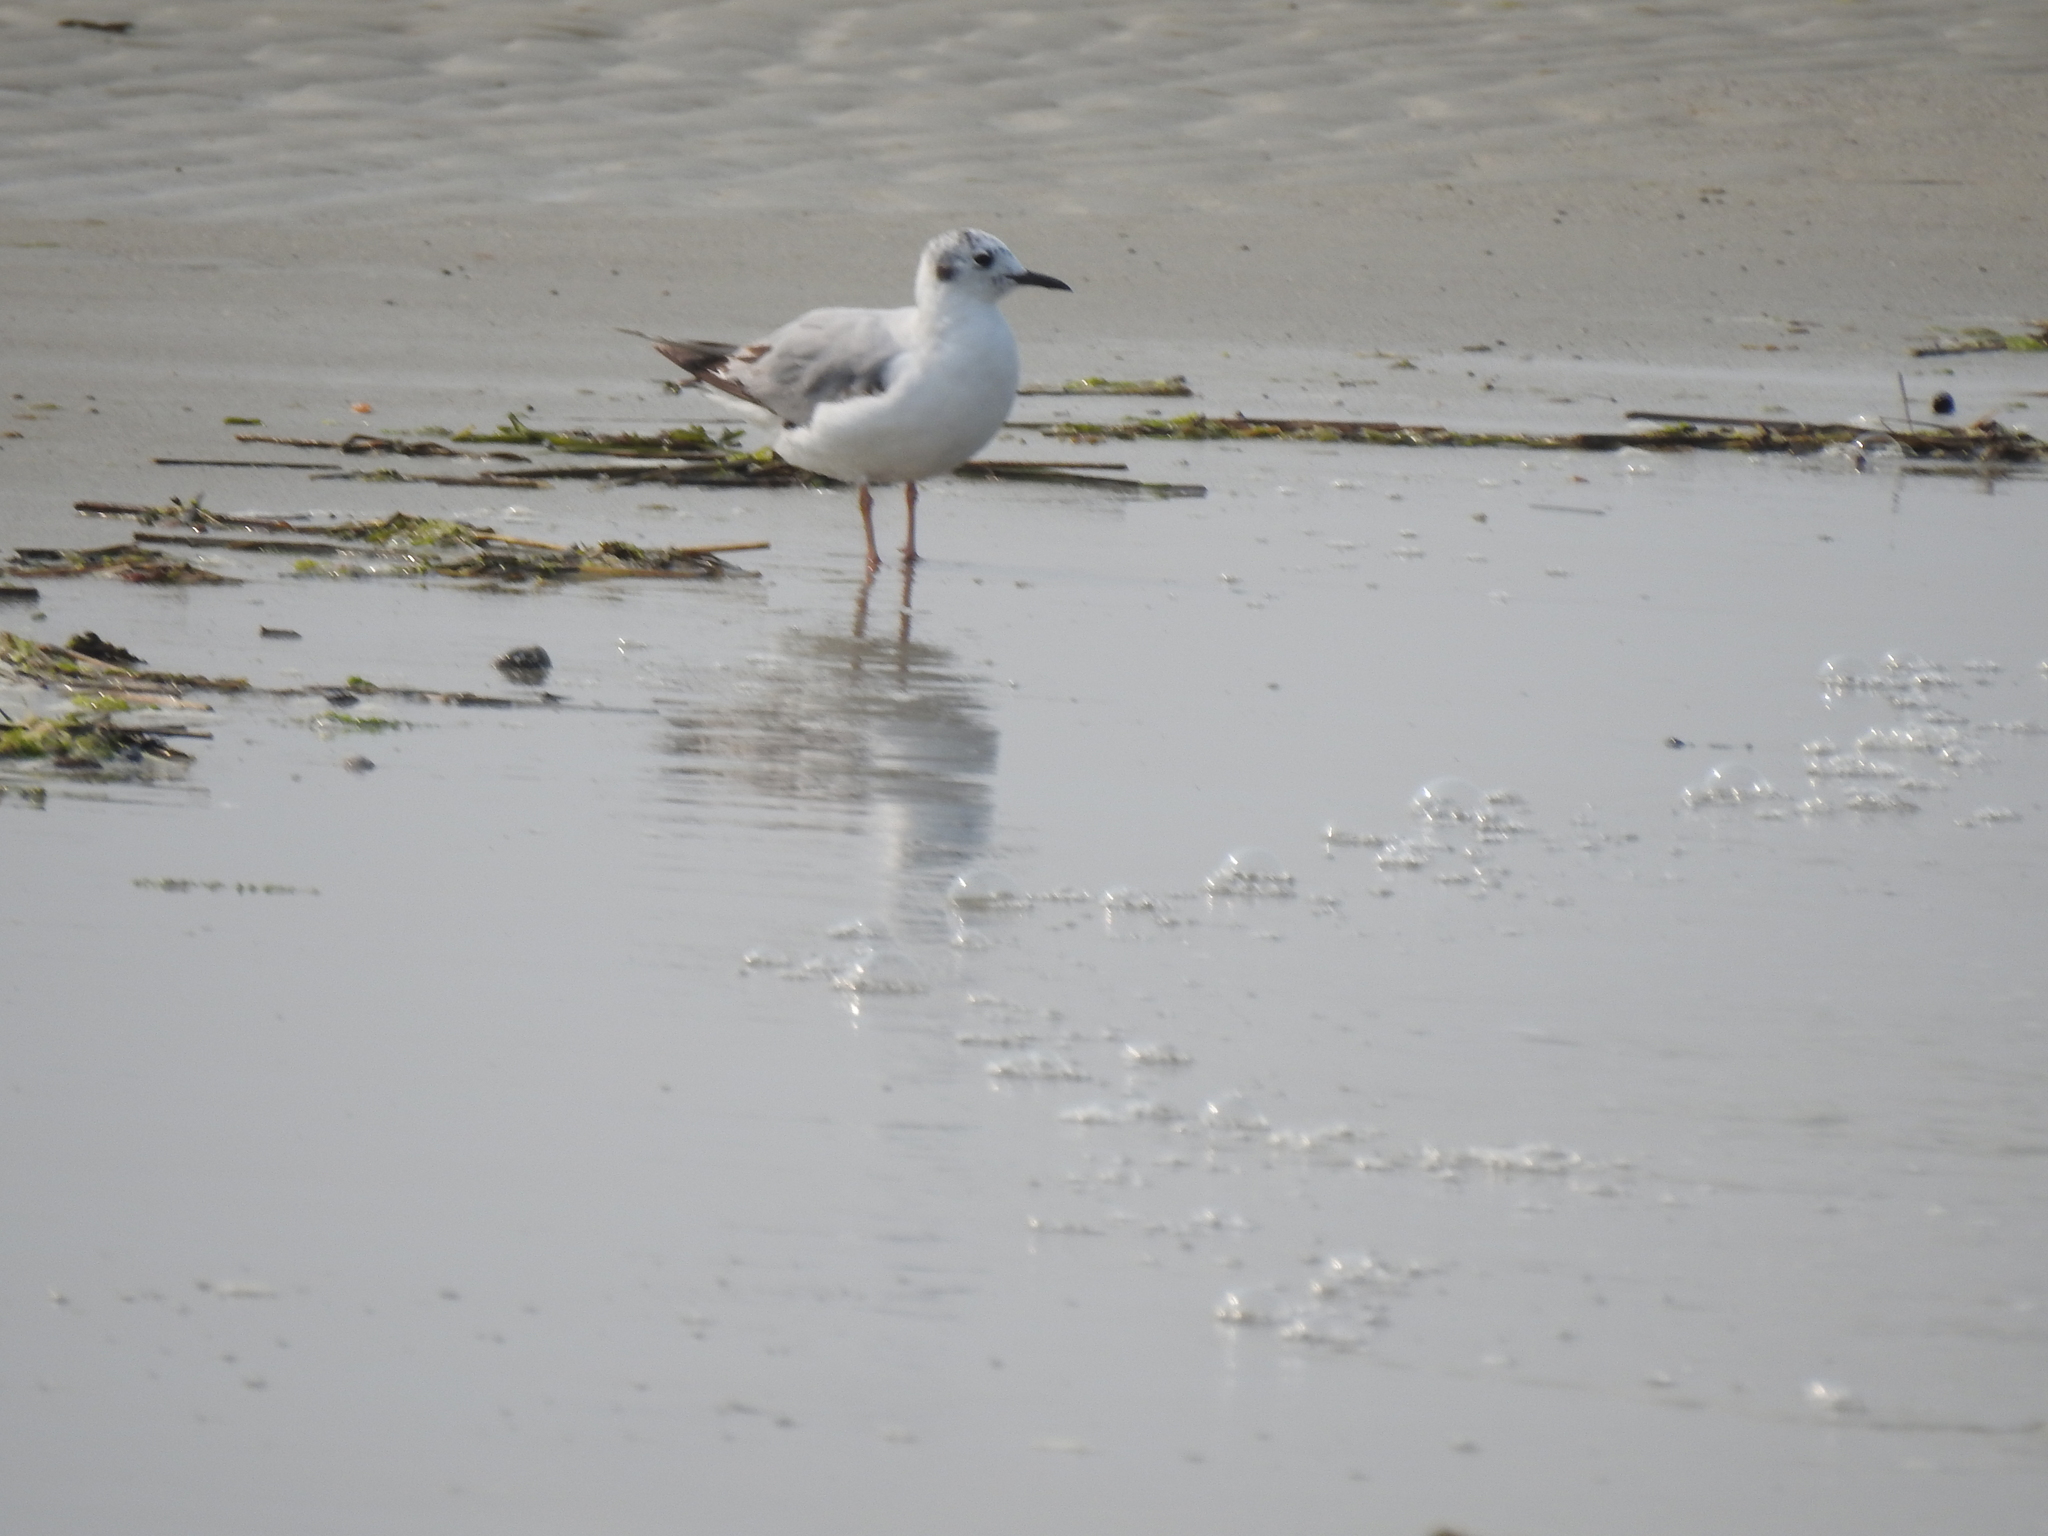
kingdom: Animalia
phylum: Chordata
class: Aves
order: Charadriiformes
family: Laridae
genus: Chroicocephalus
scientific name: Chroicocephalus philadelphia
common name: Bonaparte's gull
